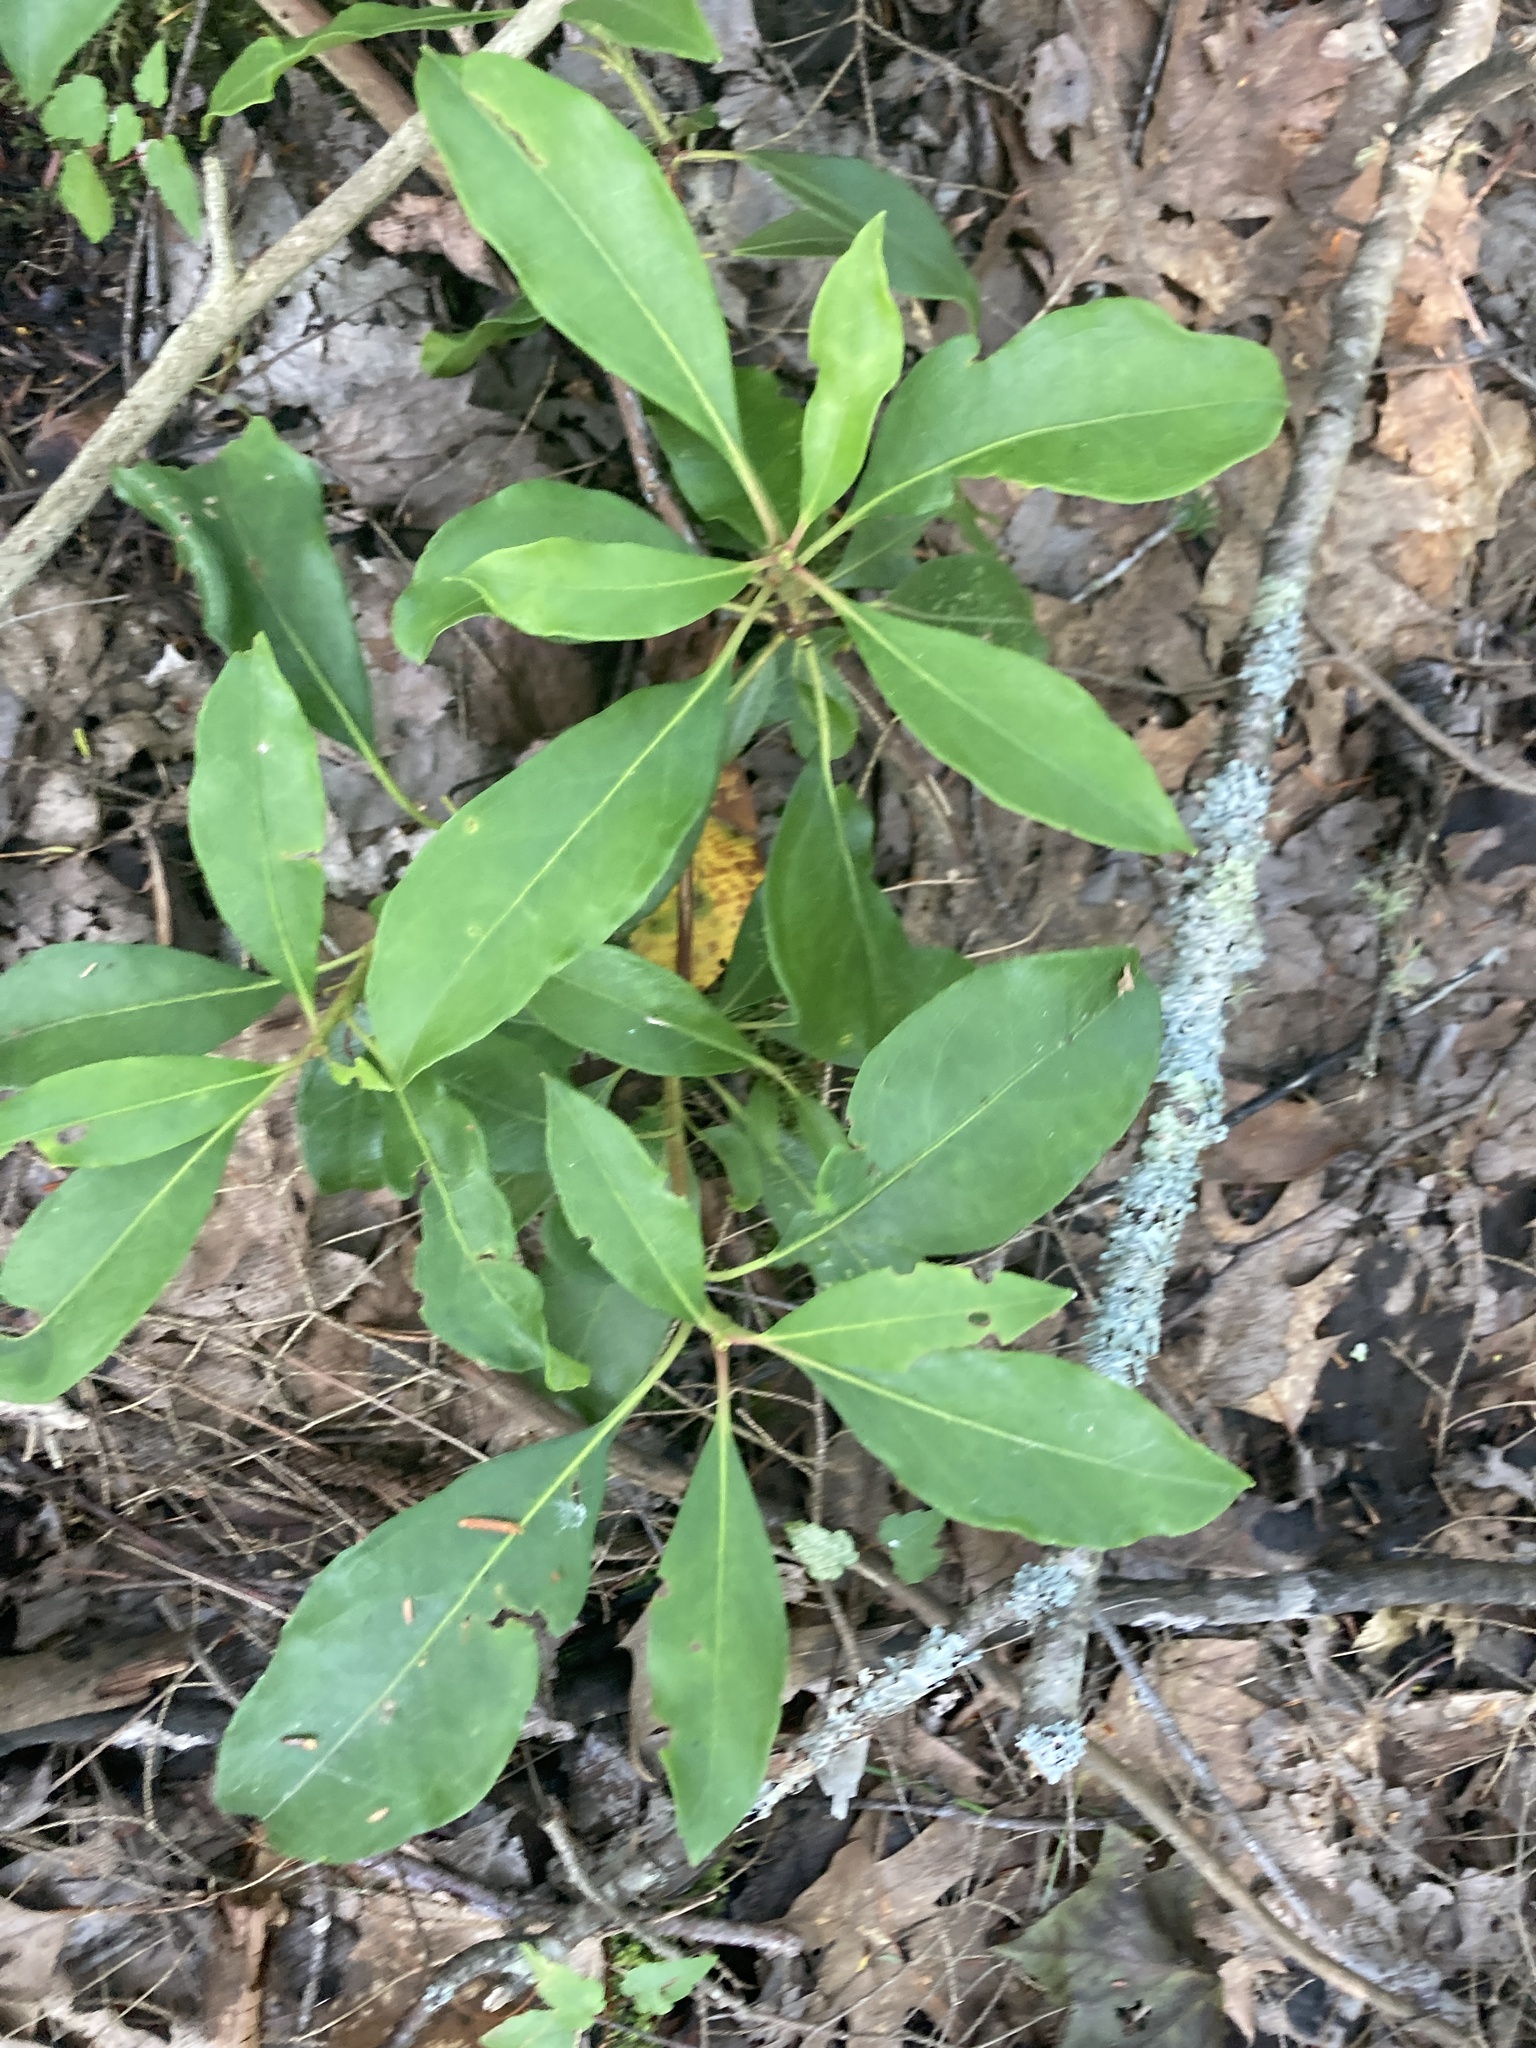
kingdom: Plantae
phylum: Tracheophyta
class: Magnoliopsida
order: Ericales
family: Ericaceae
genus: Kalmia
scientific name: Kalmia latifolia
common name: Mountain-laurel
